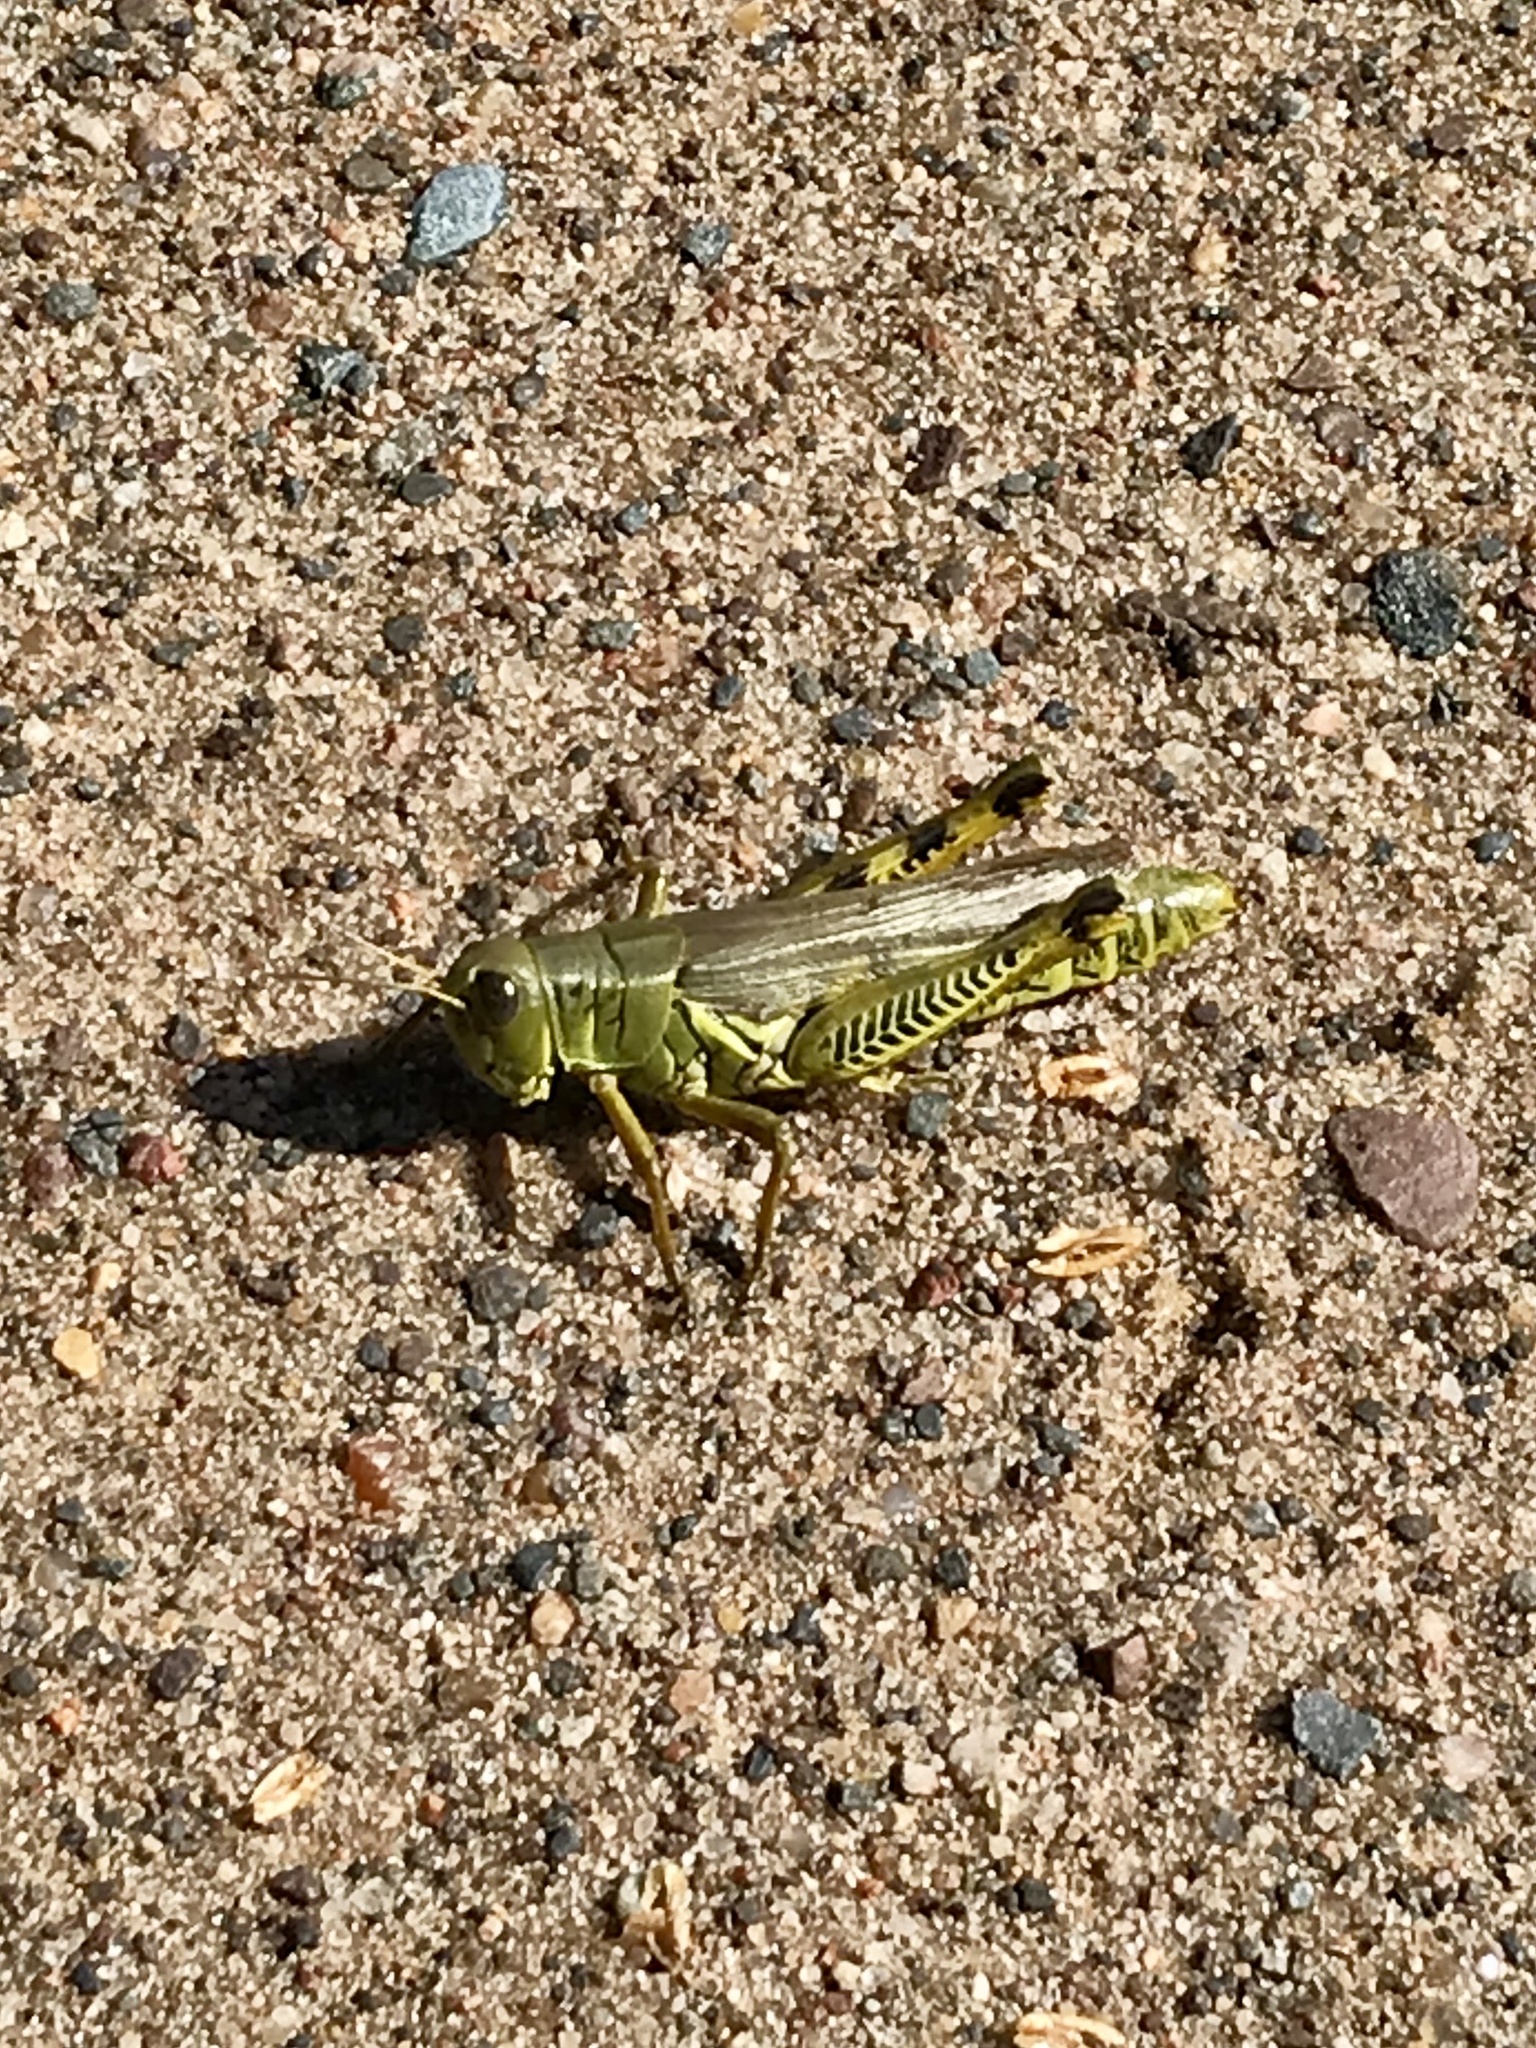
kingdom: Animalia
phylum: Arthropoda
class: Insecta
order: Orthoptera
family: Acrididae
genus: Melanoplus
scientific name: Melanoplus differentialis
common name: Differential grasshopper
